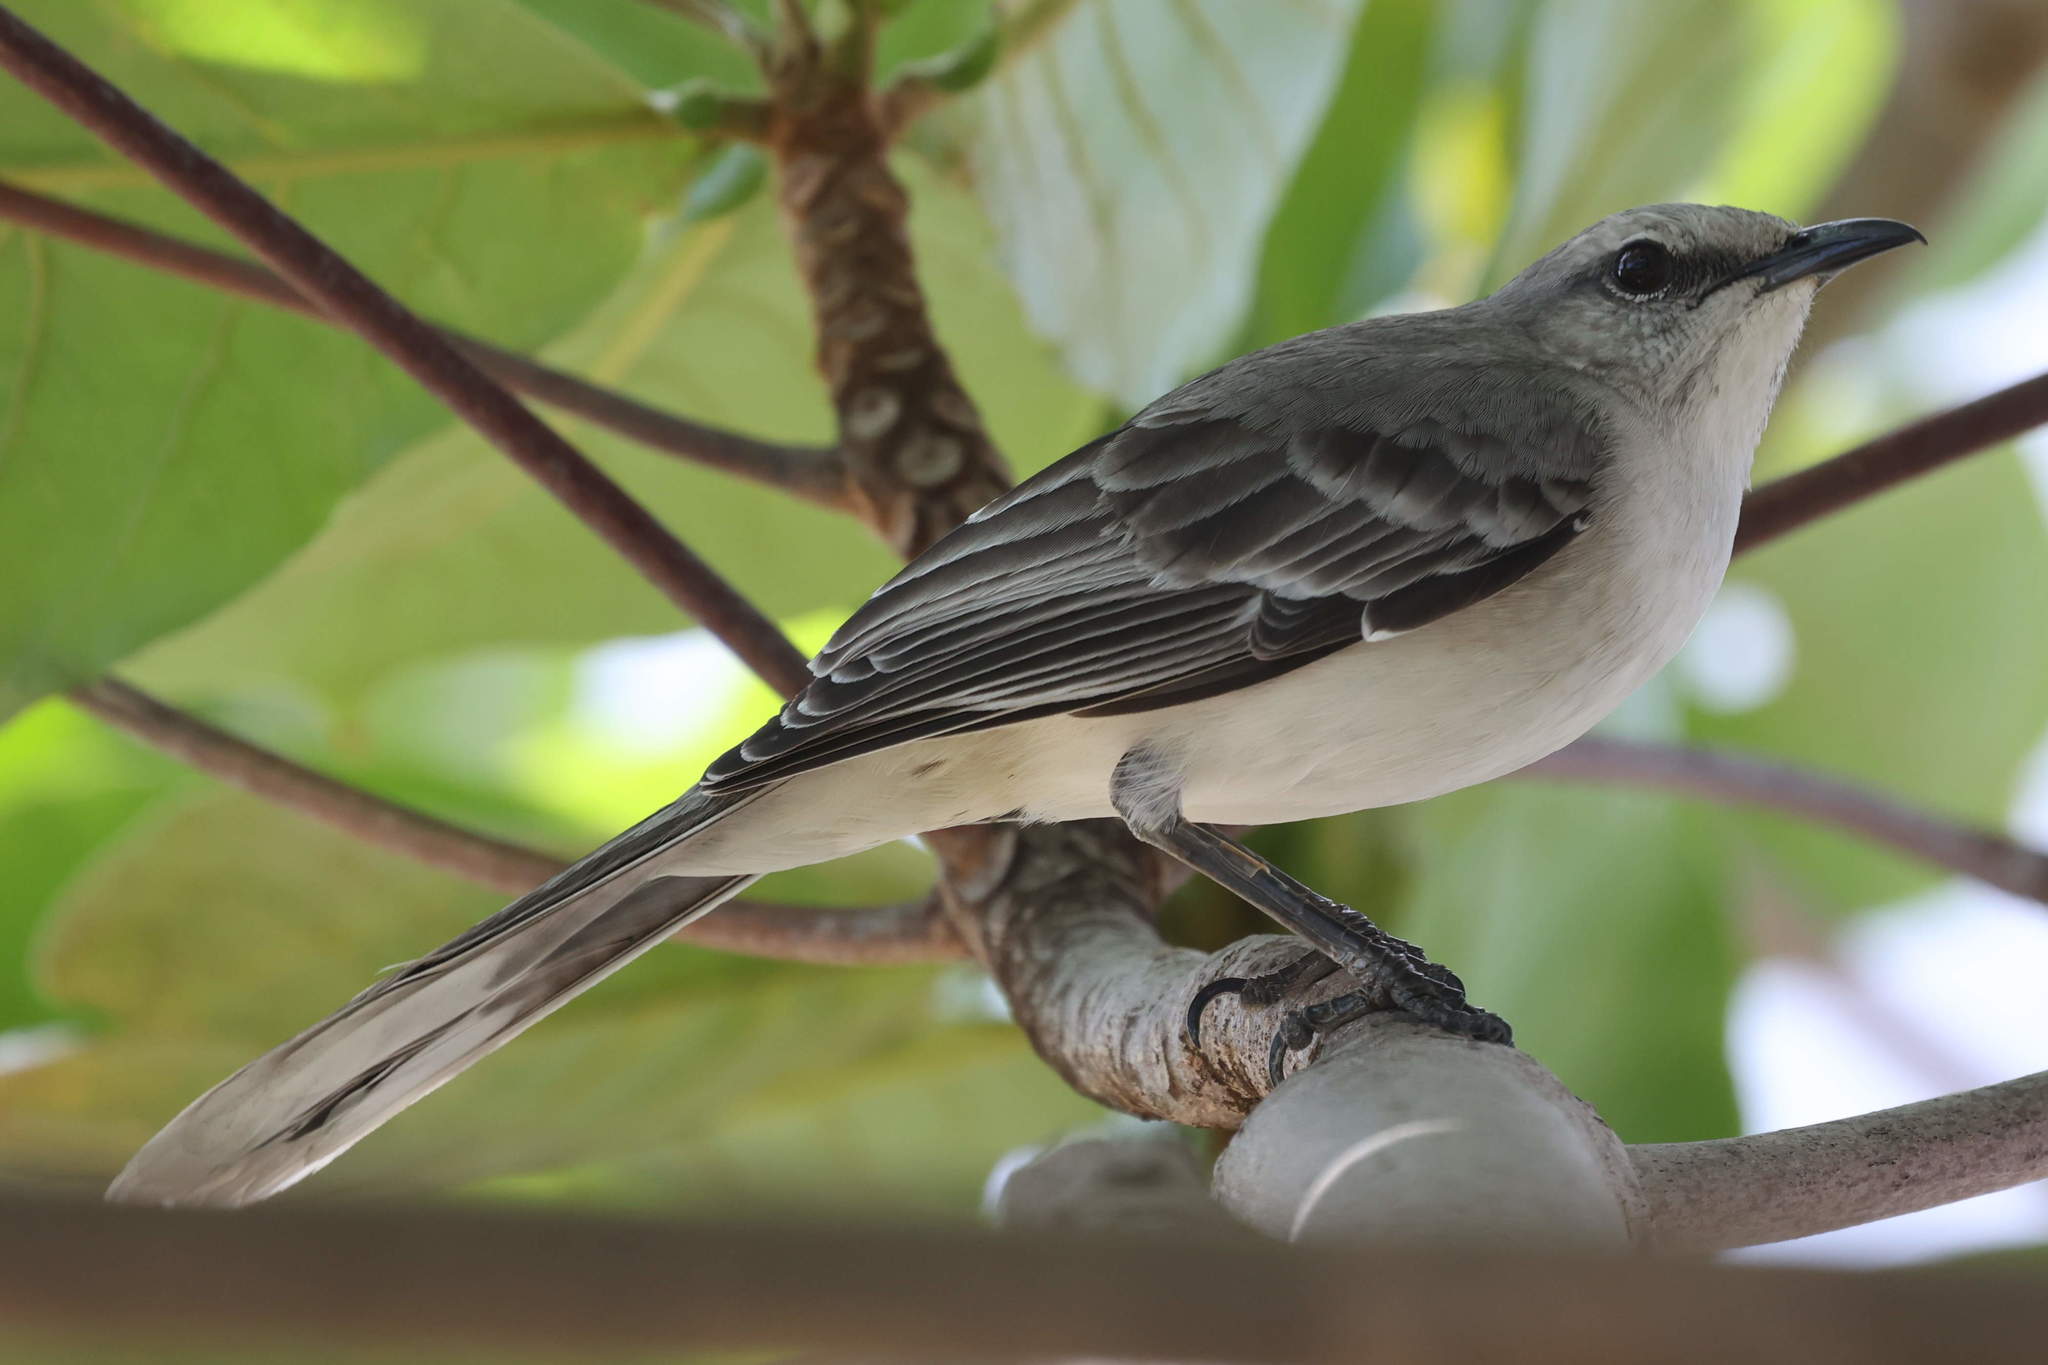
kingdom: Animalia
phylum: Chordata
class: Aves
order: Passeriformes
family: Mimidae
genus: Mimus
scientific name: Mimus gilvus
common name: Tropical mockingbird
